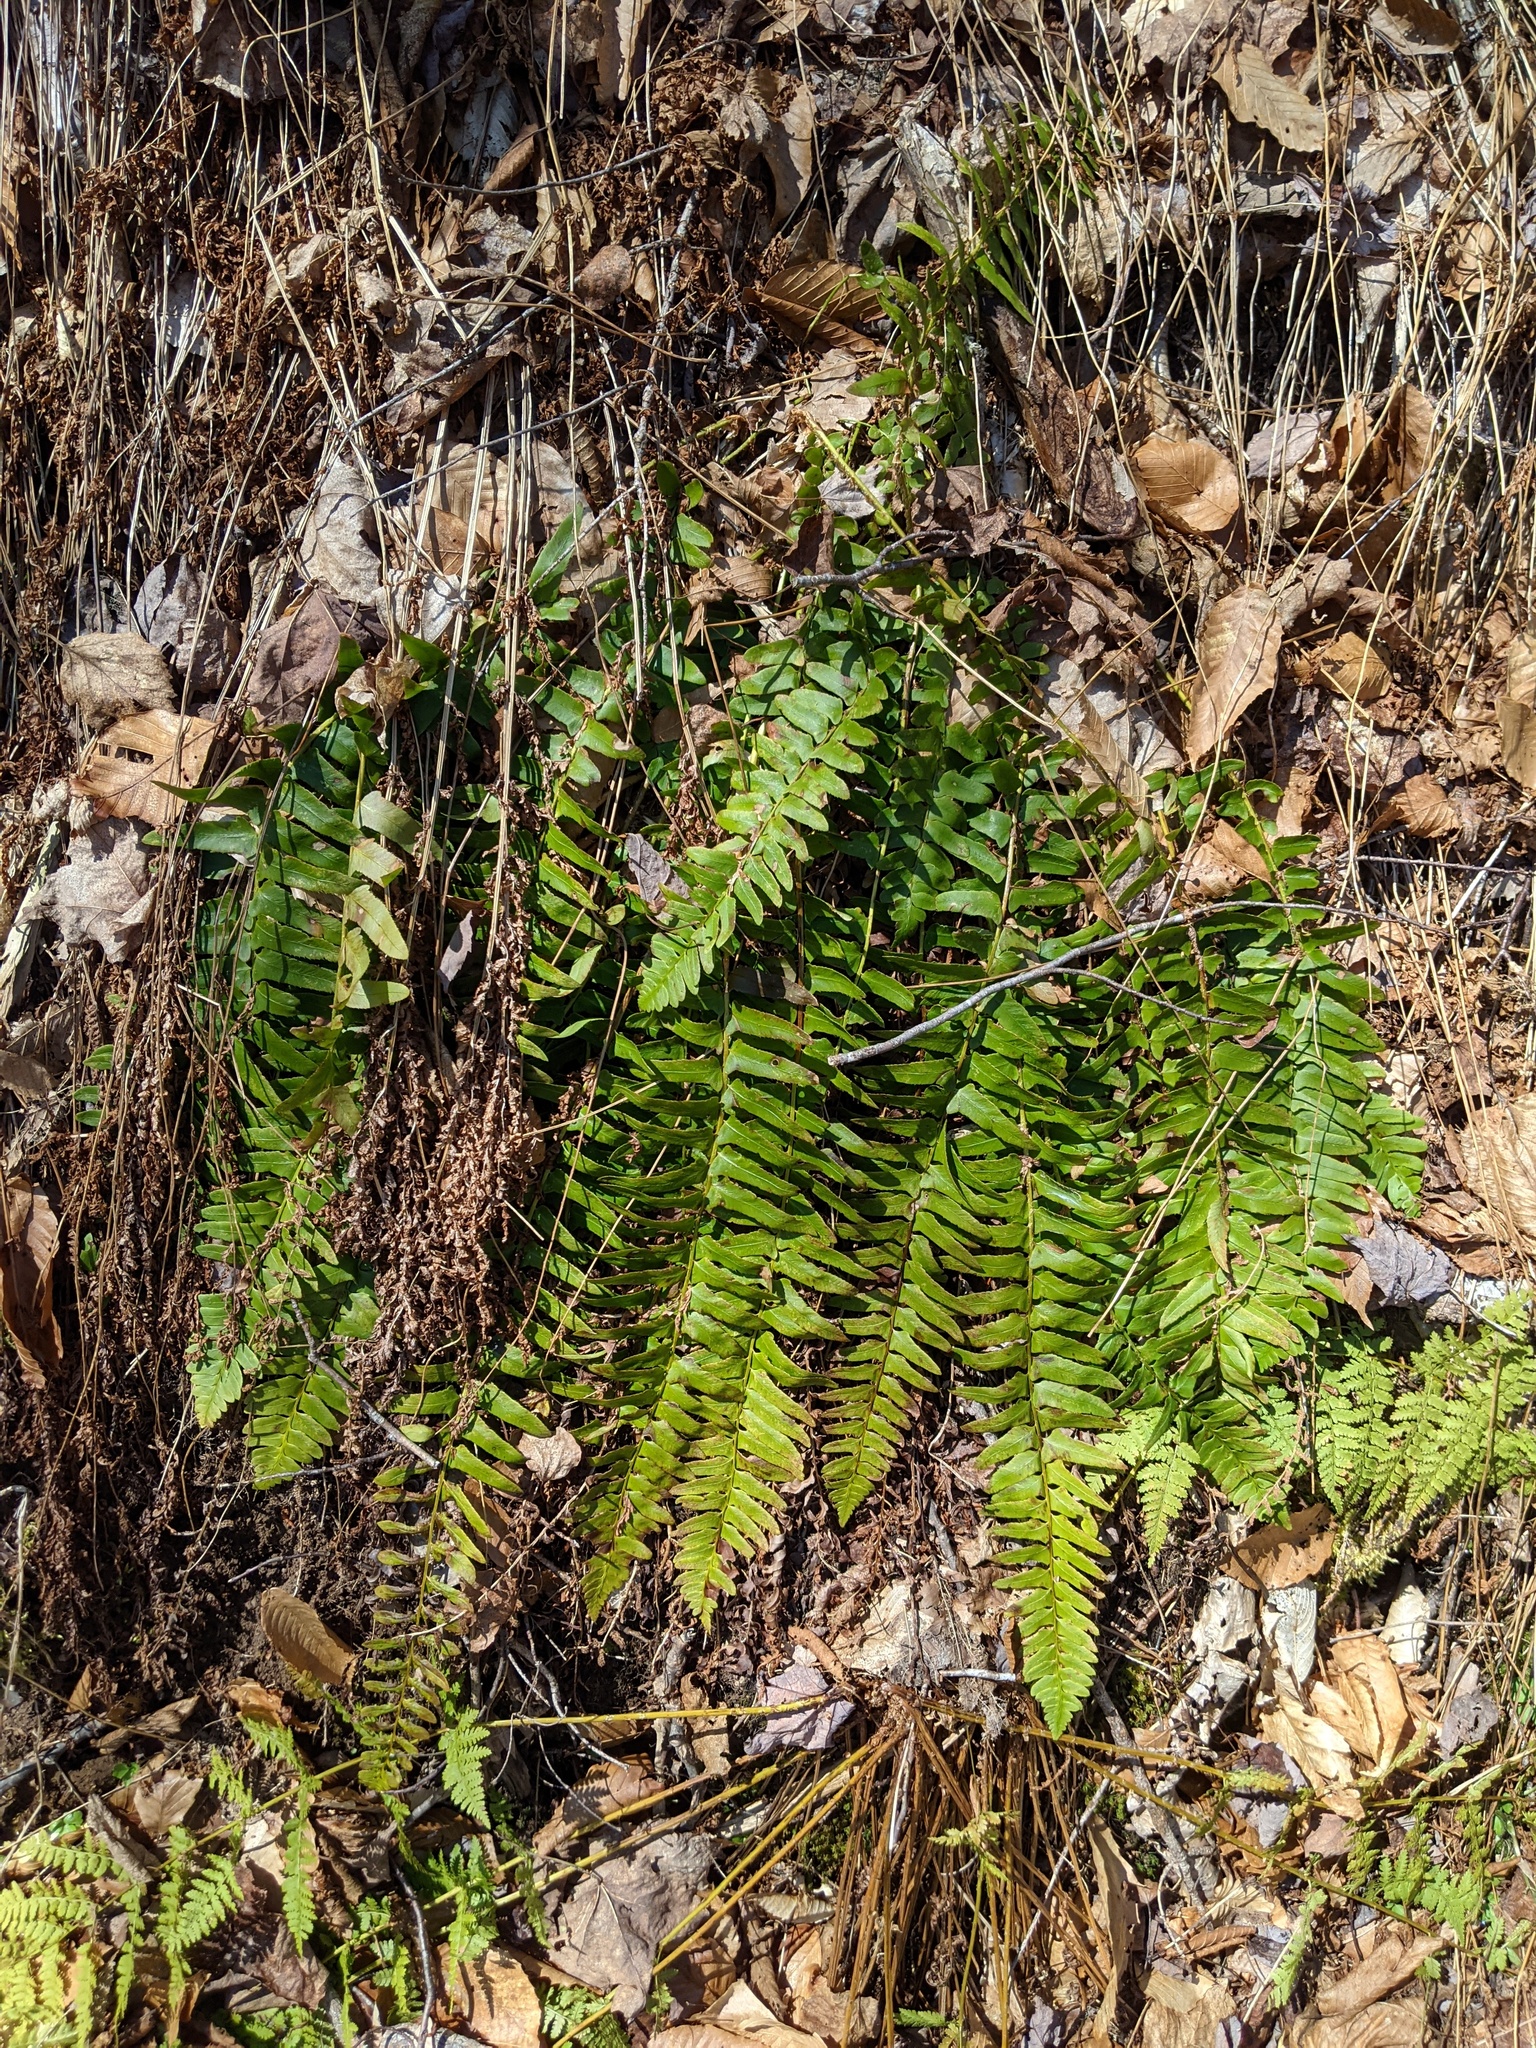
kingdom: Plantae
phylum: Tracheophyta
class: Polypodiopsida
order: Polypodiales
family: Dryopteridaceae
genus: Polystichum
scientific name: Polystichum acrostichoides
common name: Christmas fern
